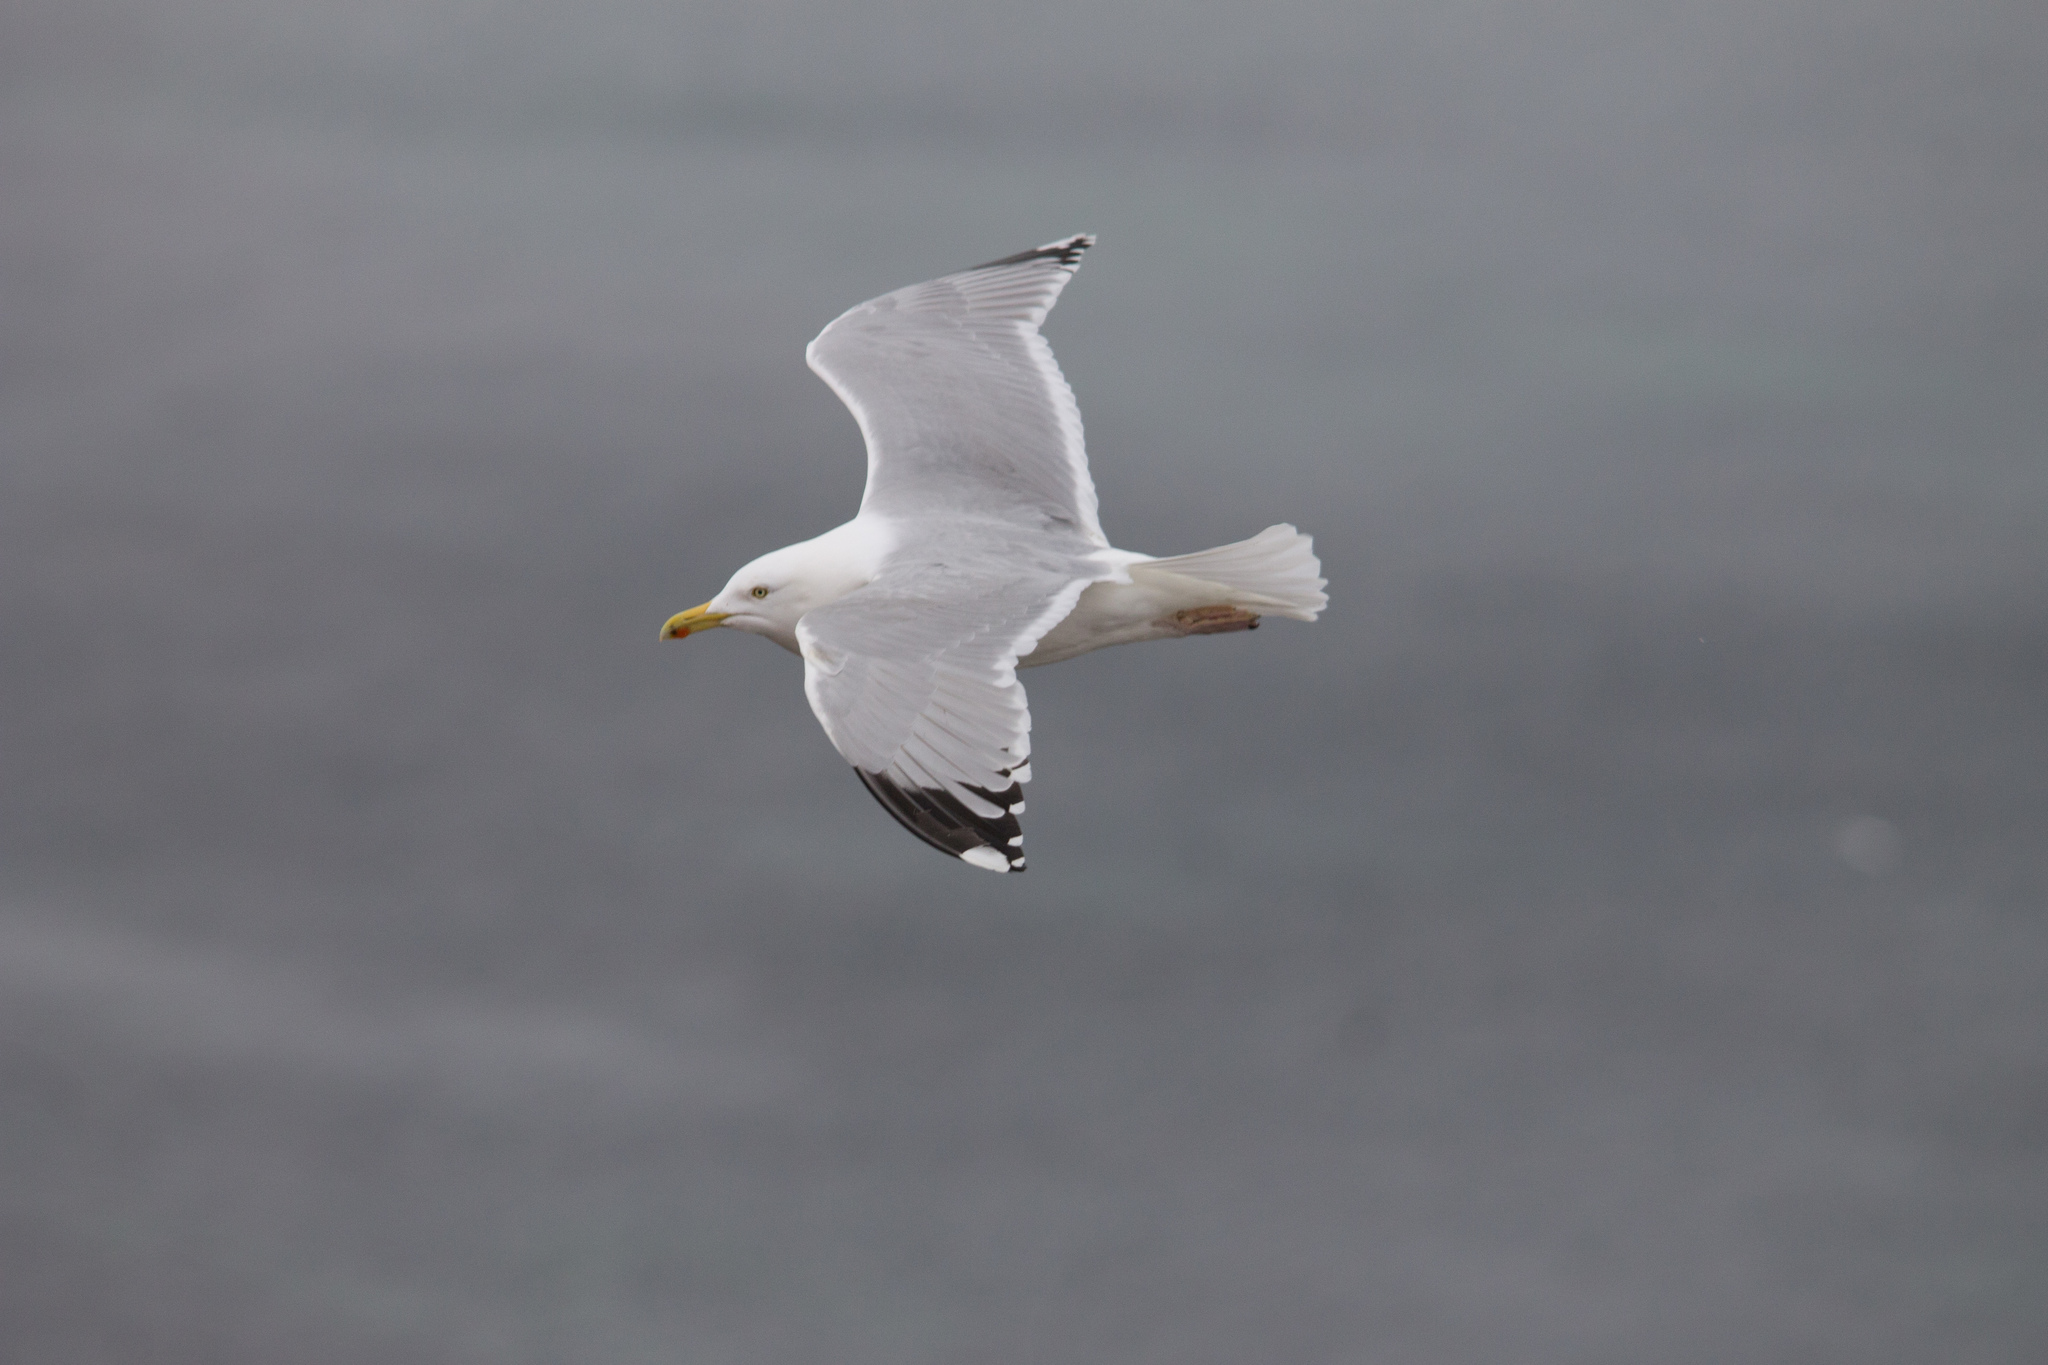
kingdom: Animalia
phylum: Chordata
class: Aves
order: Charadriiformes
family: Laridae
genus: Larus
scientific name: Larus argentatus
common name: Herring gull
